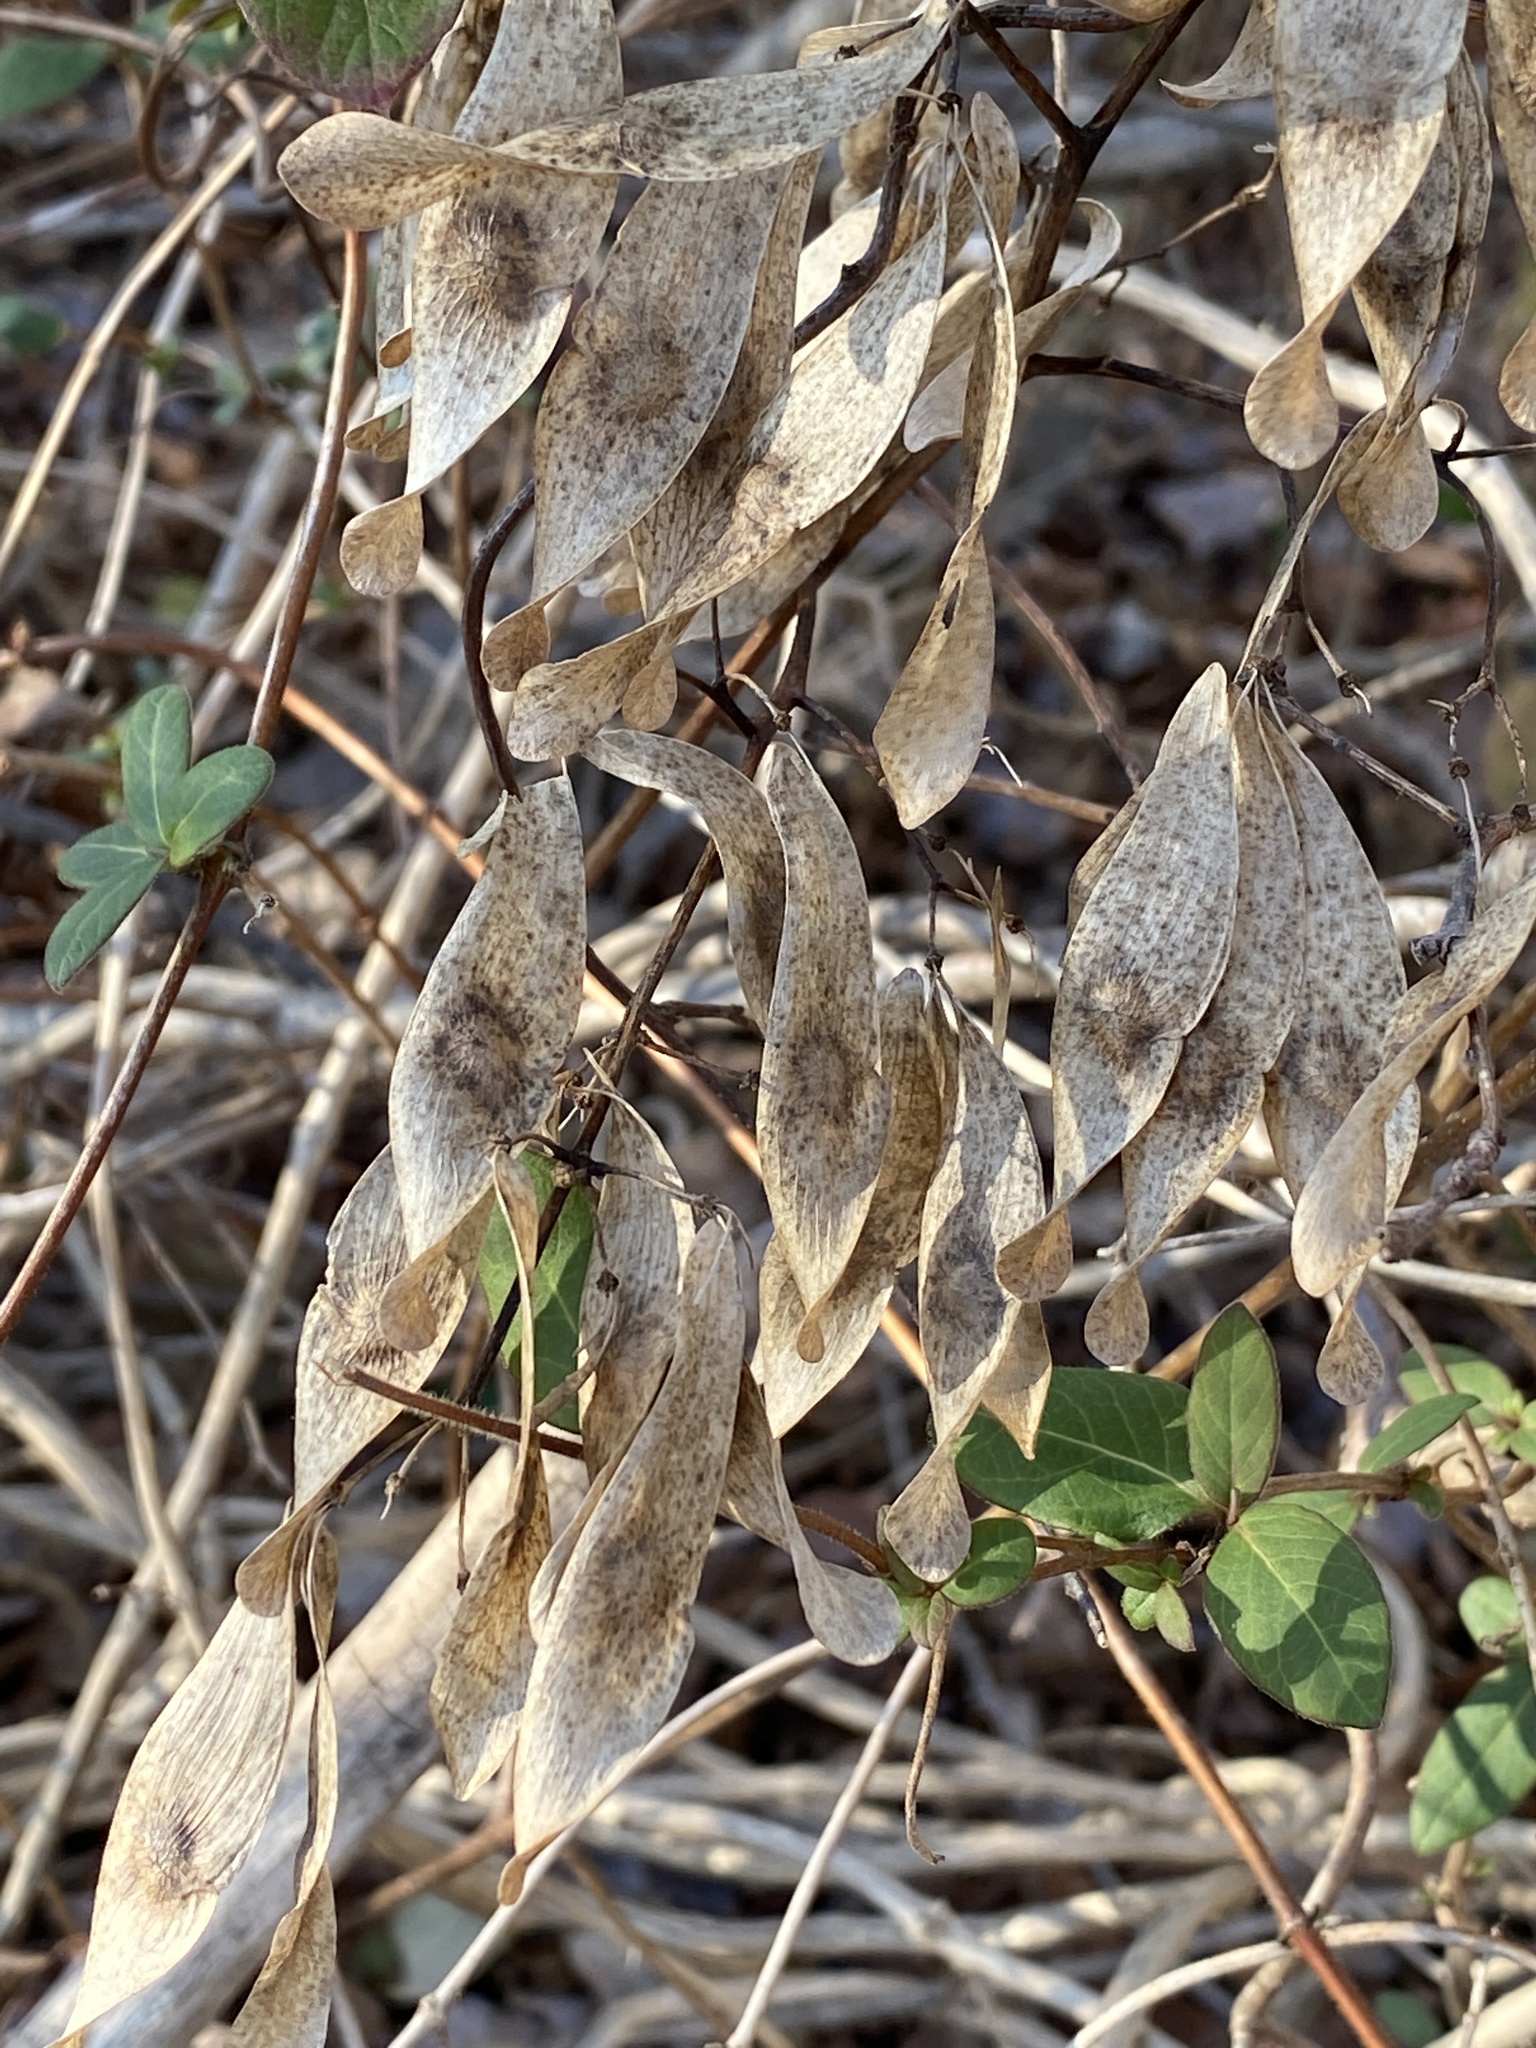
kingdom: Plantae
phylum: Tracheophyta
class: Magnoliopsida
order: Sapindales
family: Simaroubaceae
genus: Ailanthus
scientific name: Ailanthus altissima
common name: Tree-of-heaven
